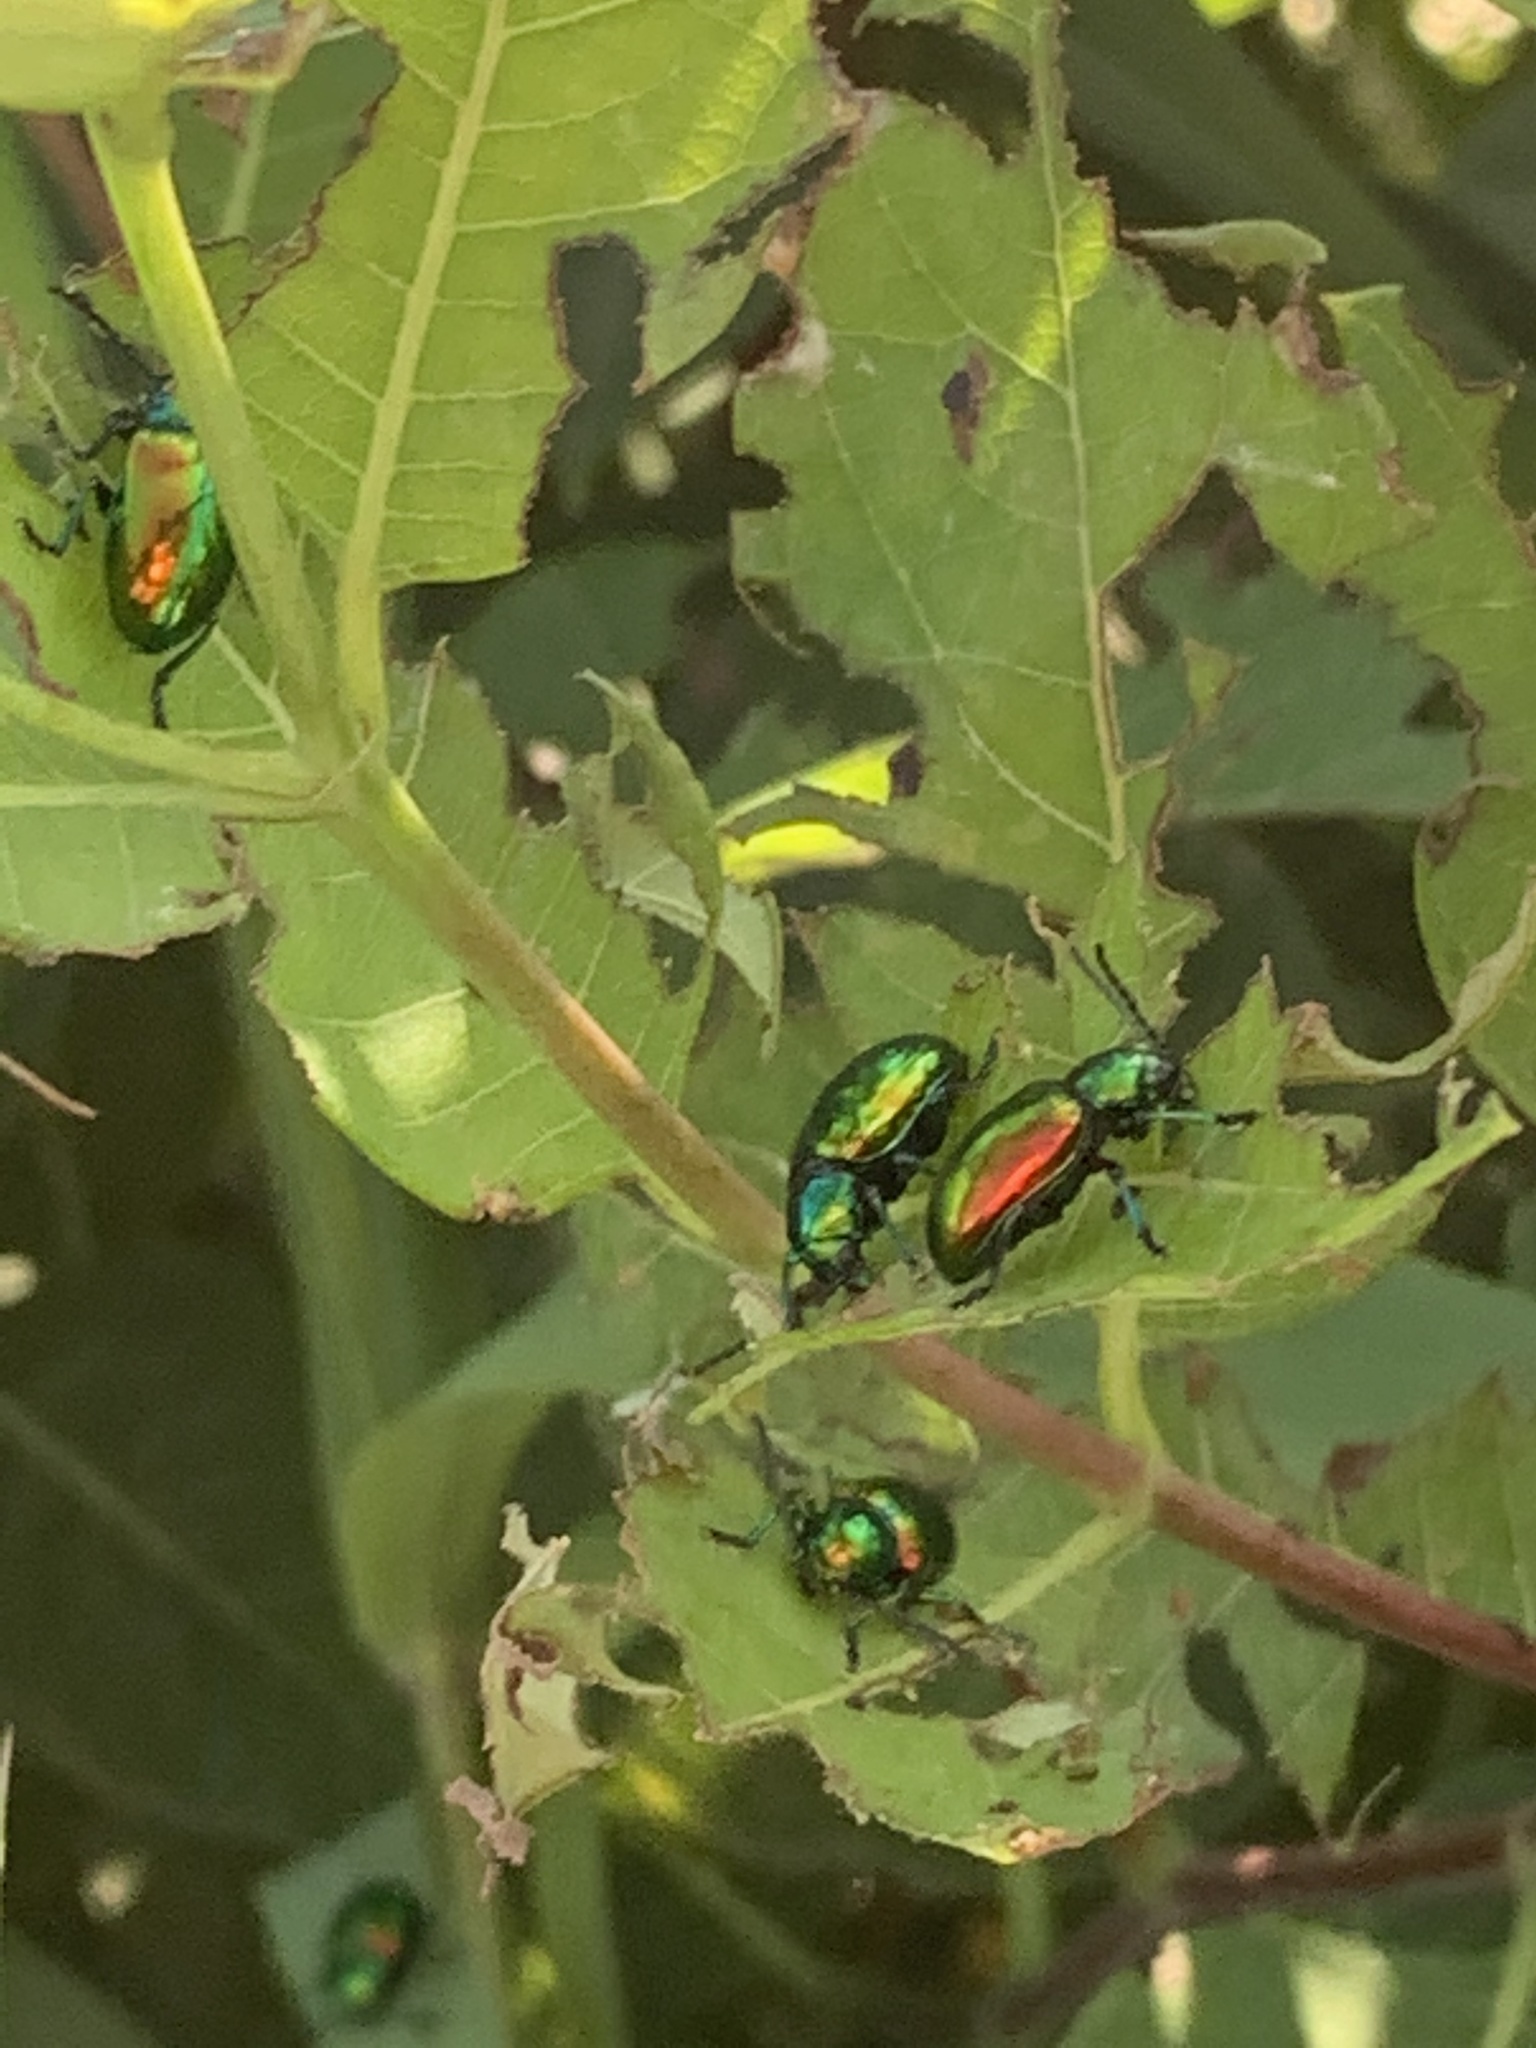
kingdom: Animalia
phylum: Arthropoda
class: Insecta
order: Coleoptera
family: Chrysomelidae
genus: Chrysochus
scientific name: Chrysochus auratus
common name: Dogbane leaf beetle
